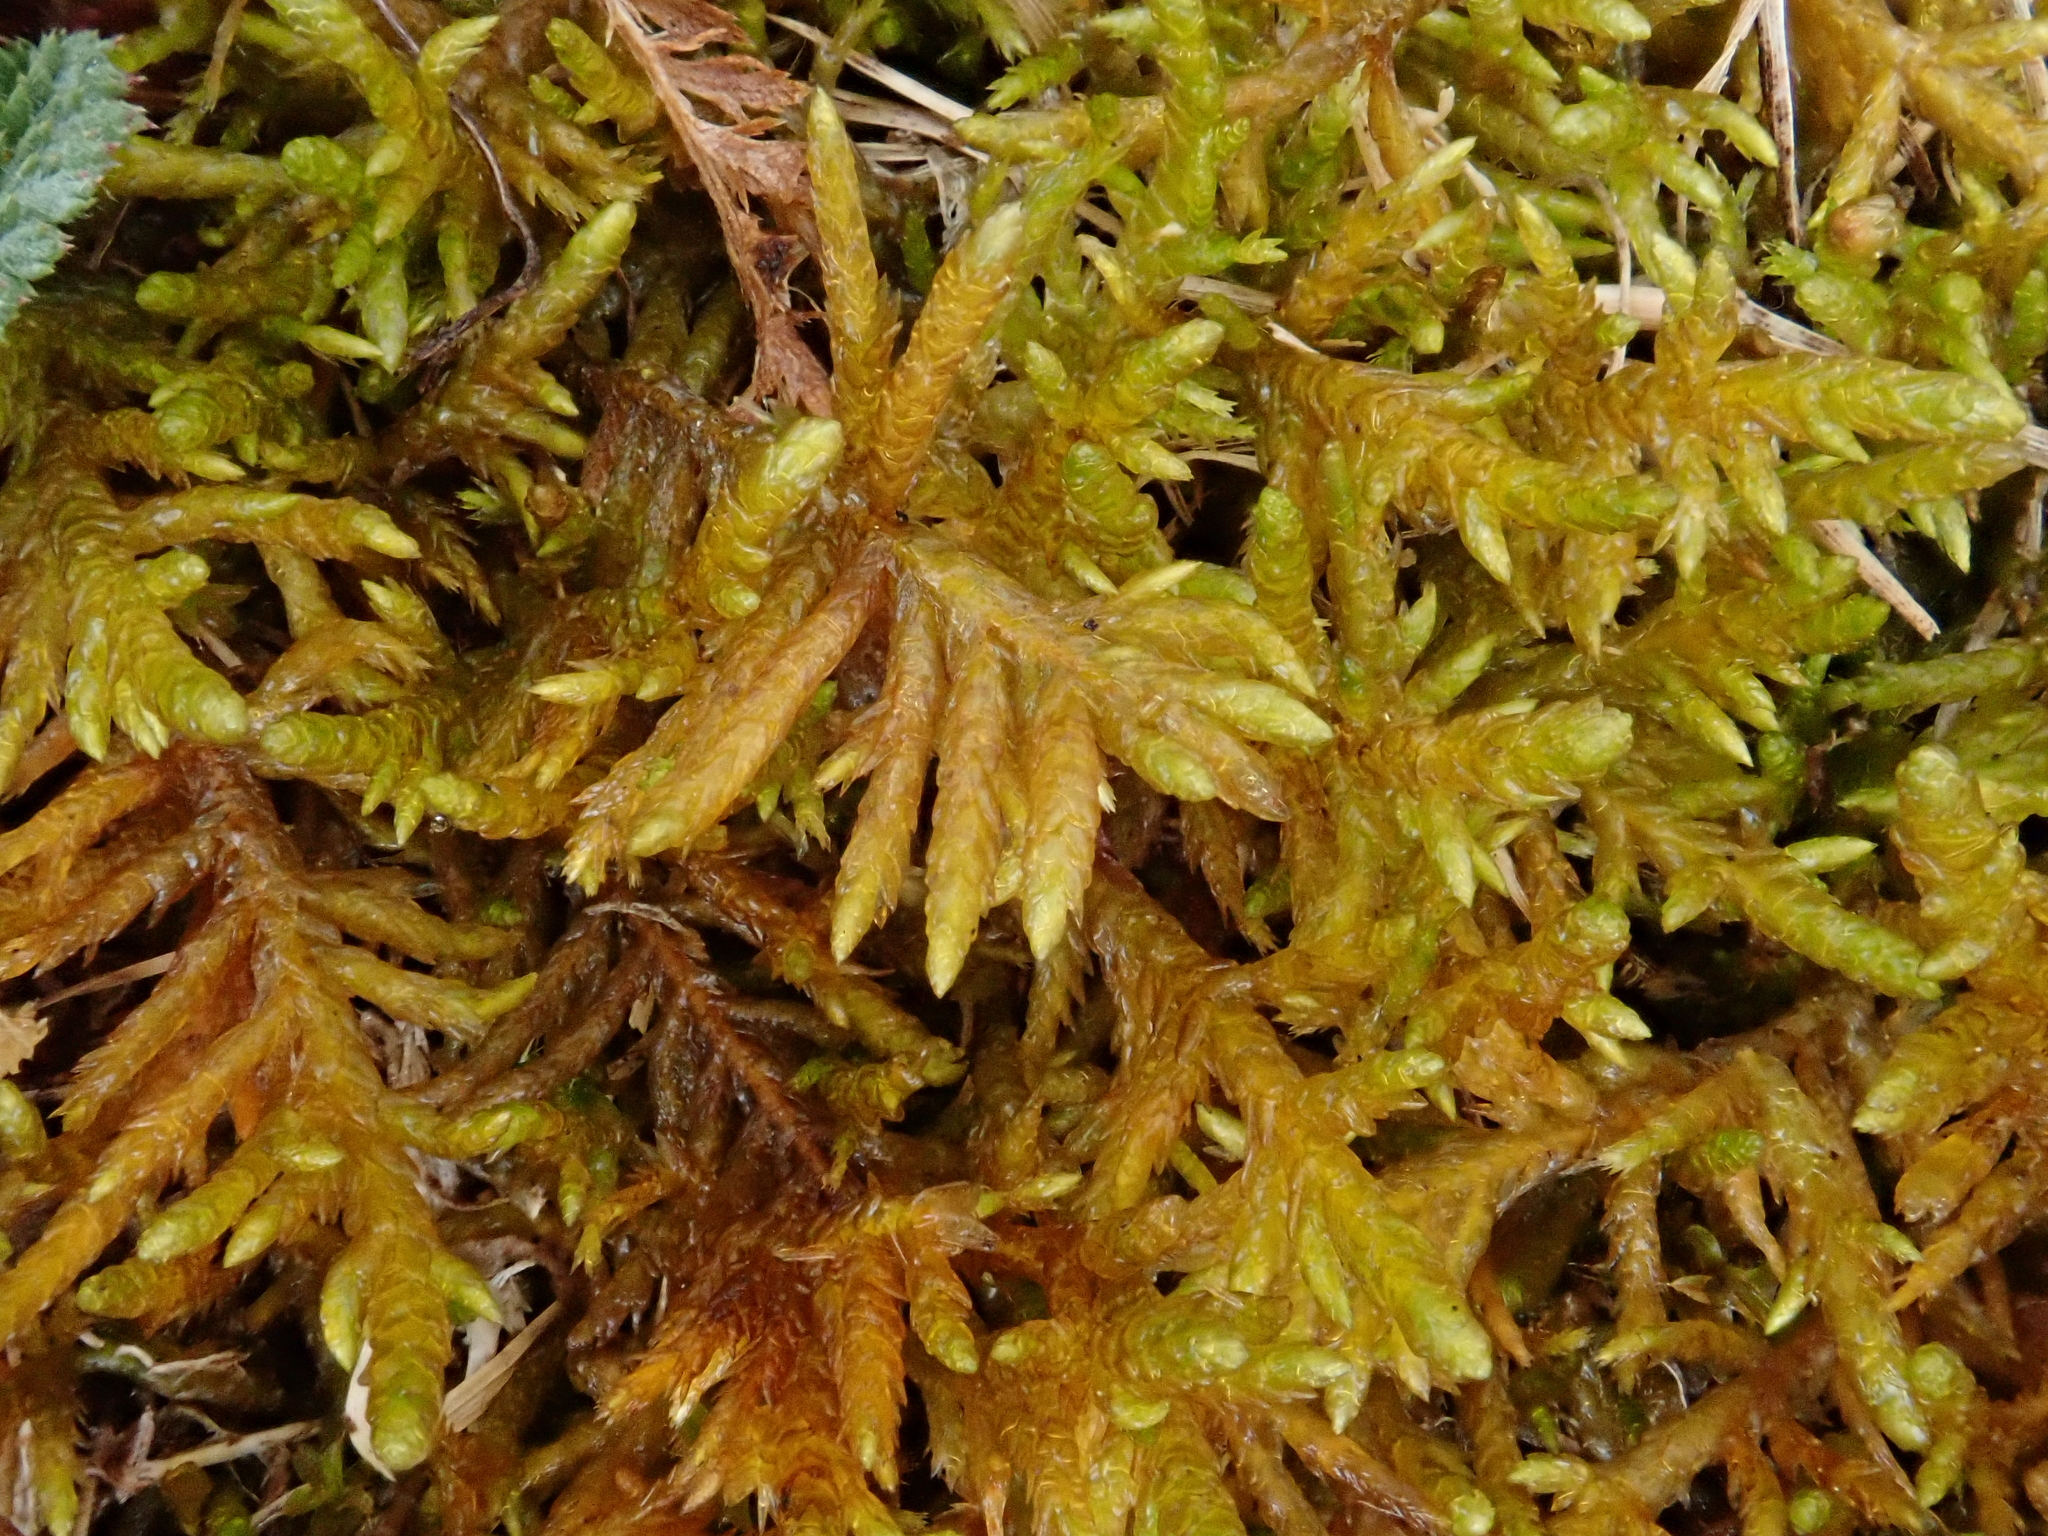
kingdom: Plantae
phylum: Bryophyta
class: Bryopsida
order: Hypnales
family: Entodontaceae
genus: Entodon
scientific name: Entodon concinnus
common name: Montagne's cylinder-moss
